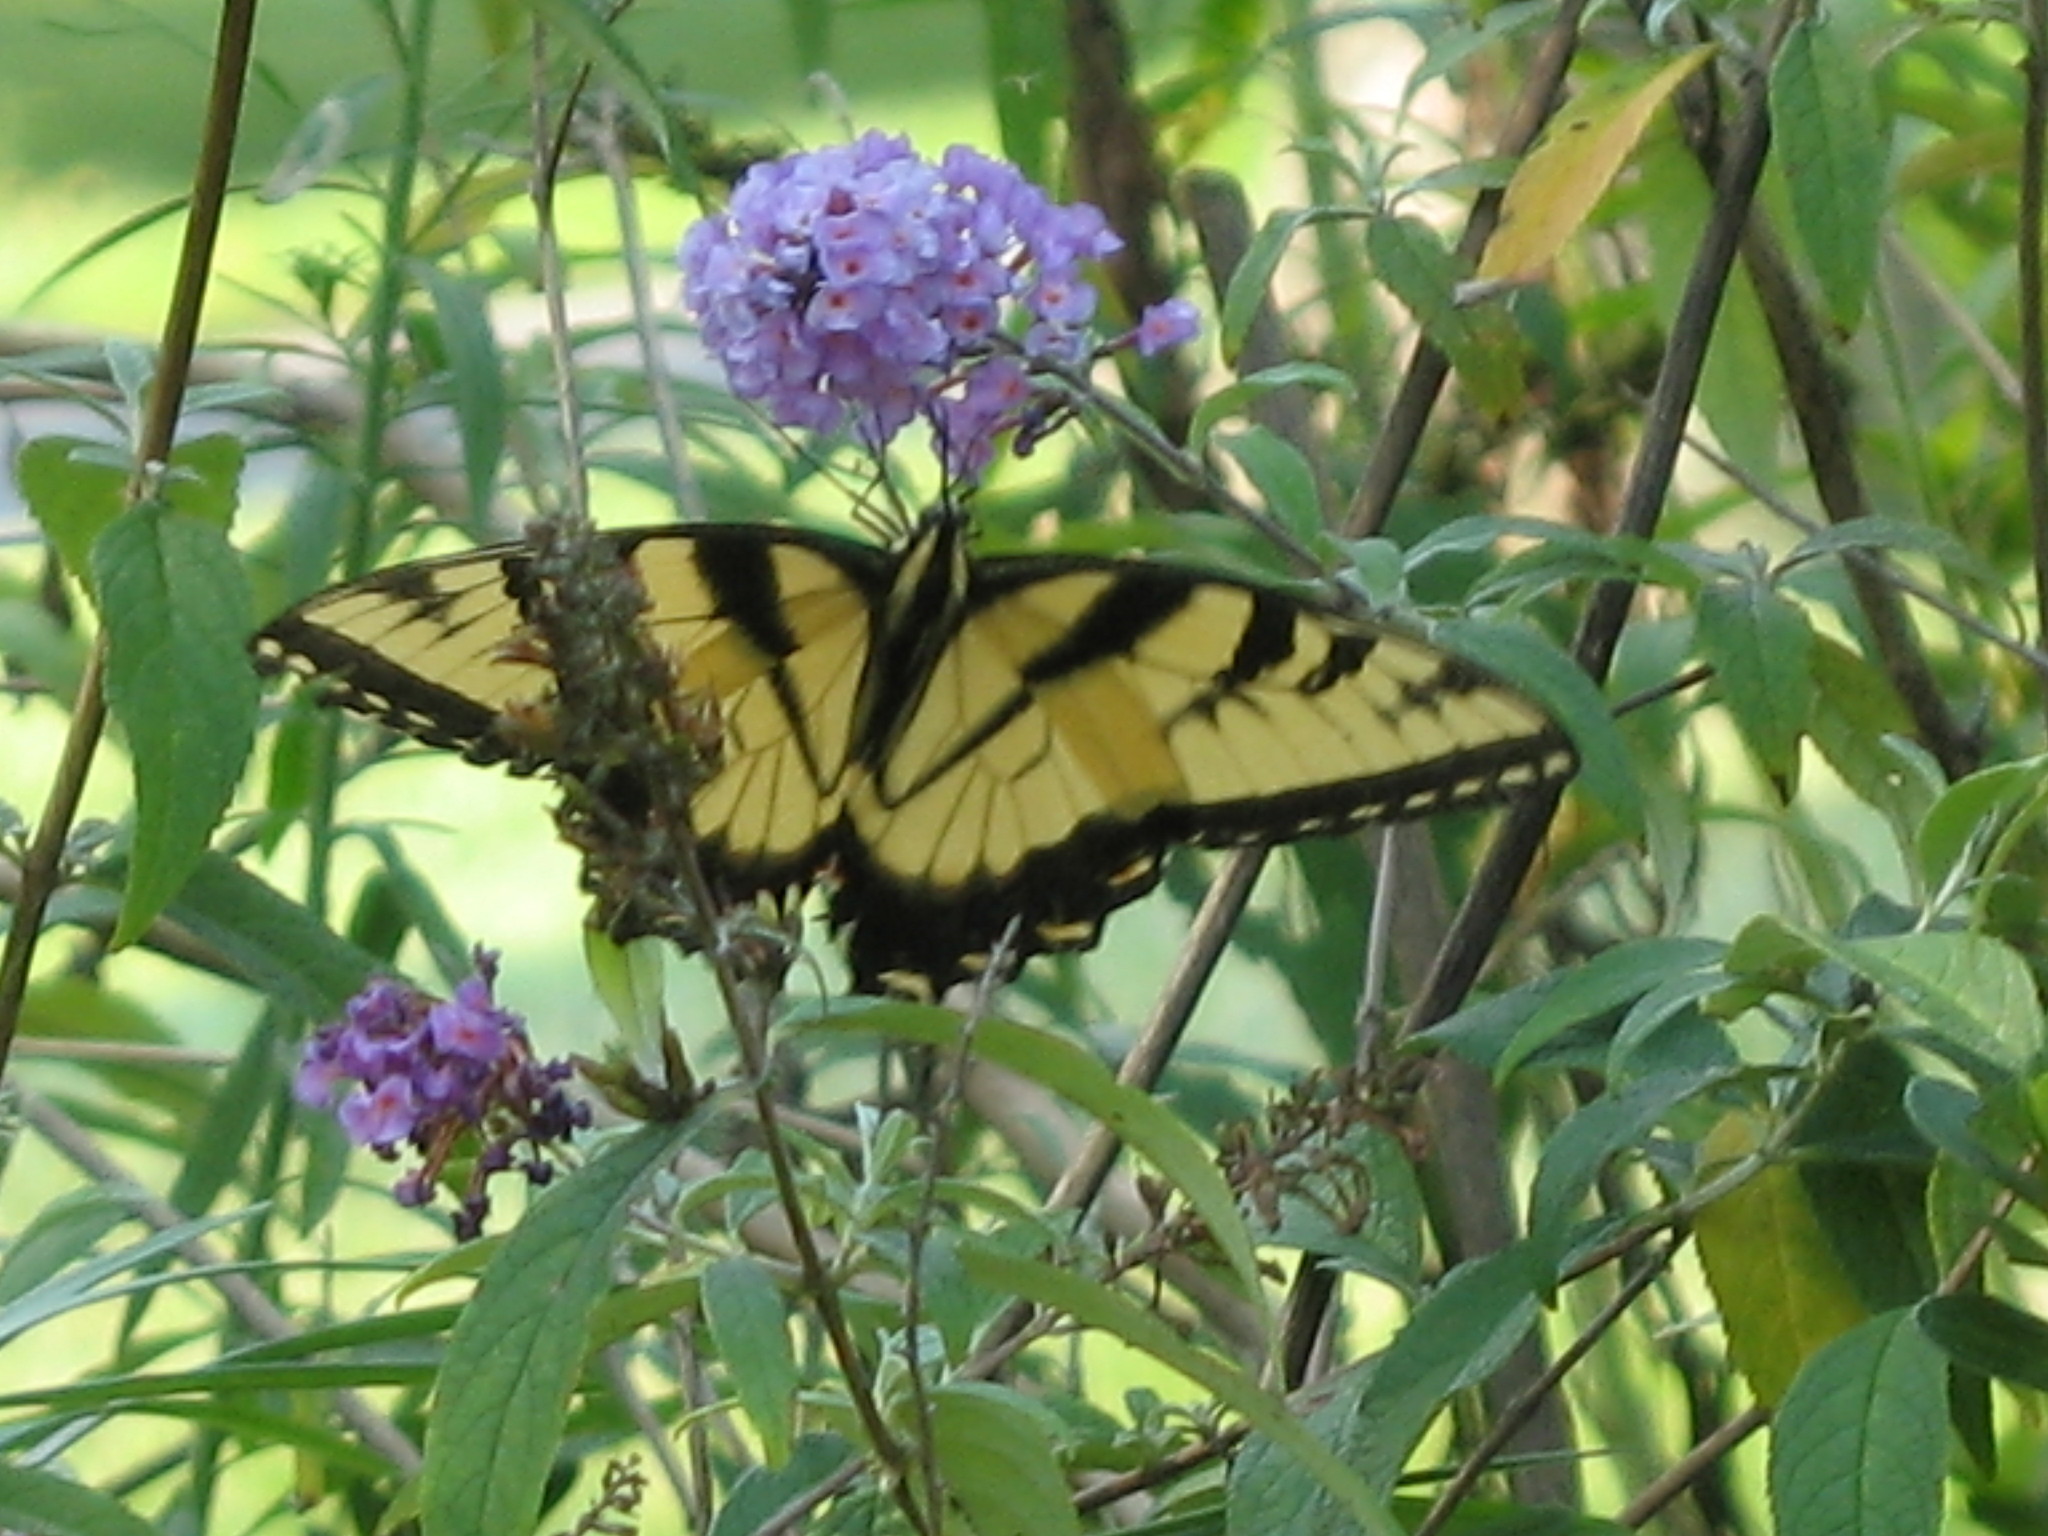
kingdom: Animalia
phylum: Arthropoda
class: Insecta
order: Lepidoptera
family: Papilionidae
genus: Papilio
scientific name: Papilio glaucus
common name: Tiger swallowtail
